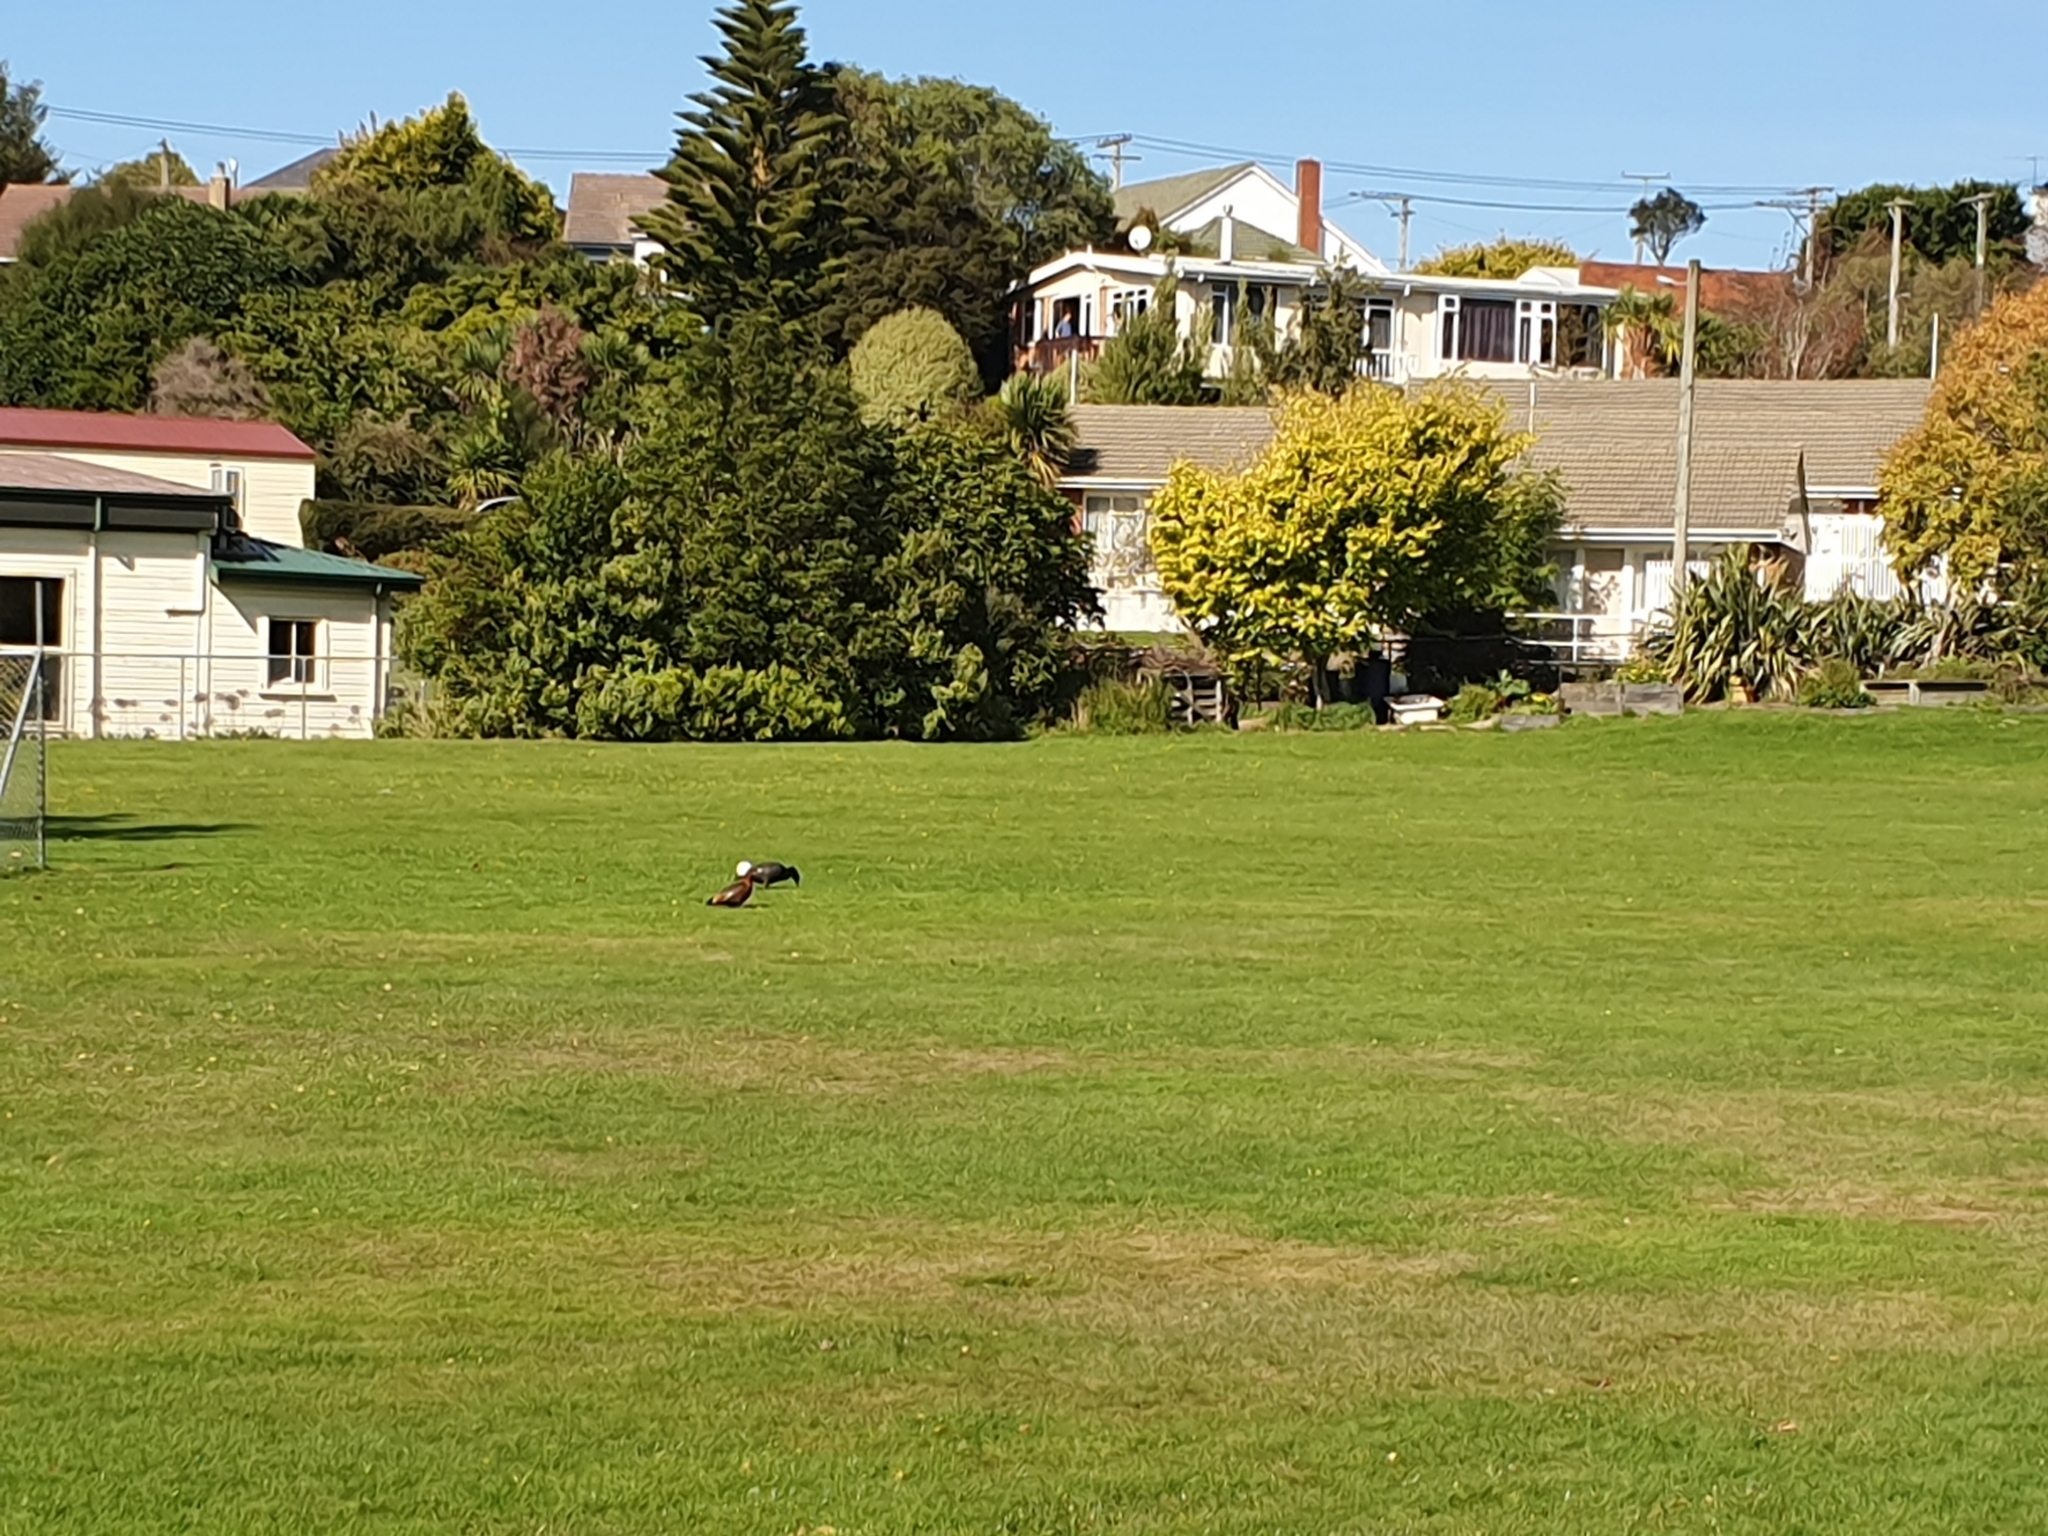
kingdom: Animalia
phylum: Chordata
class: Aves
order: Anseriformes
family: Anatidae
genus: Tadorna
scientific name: Tadorna variegata
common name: Paradise shelduck
